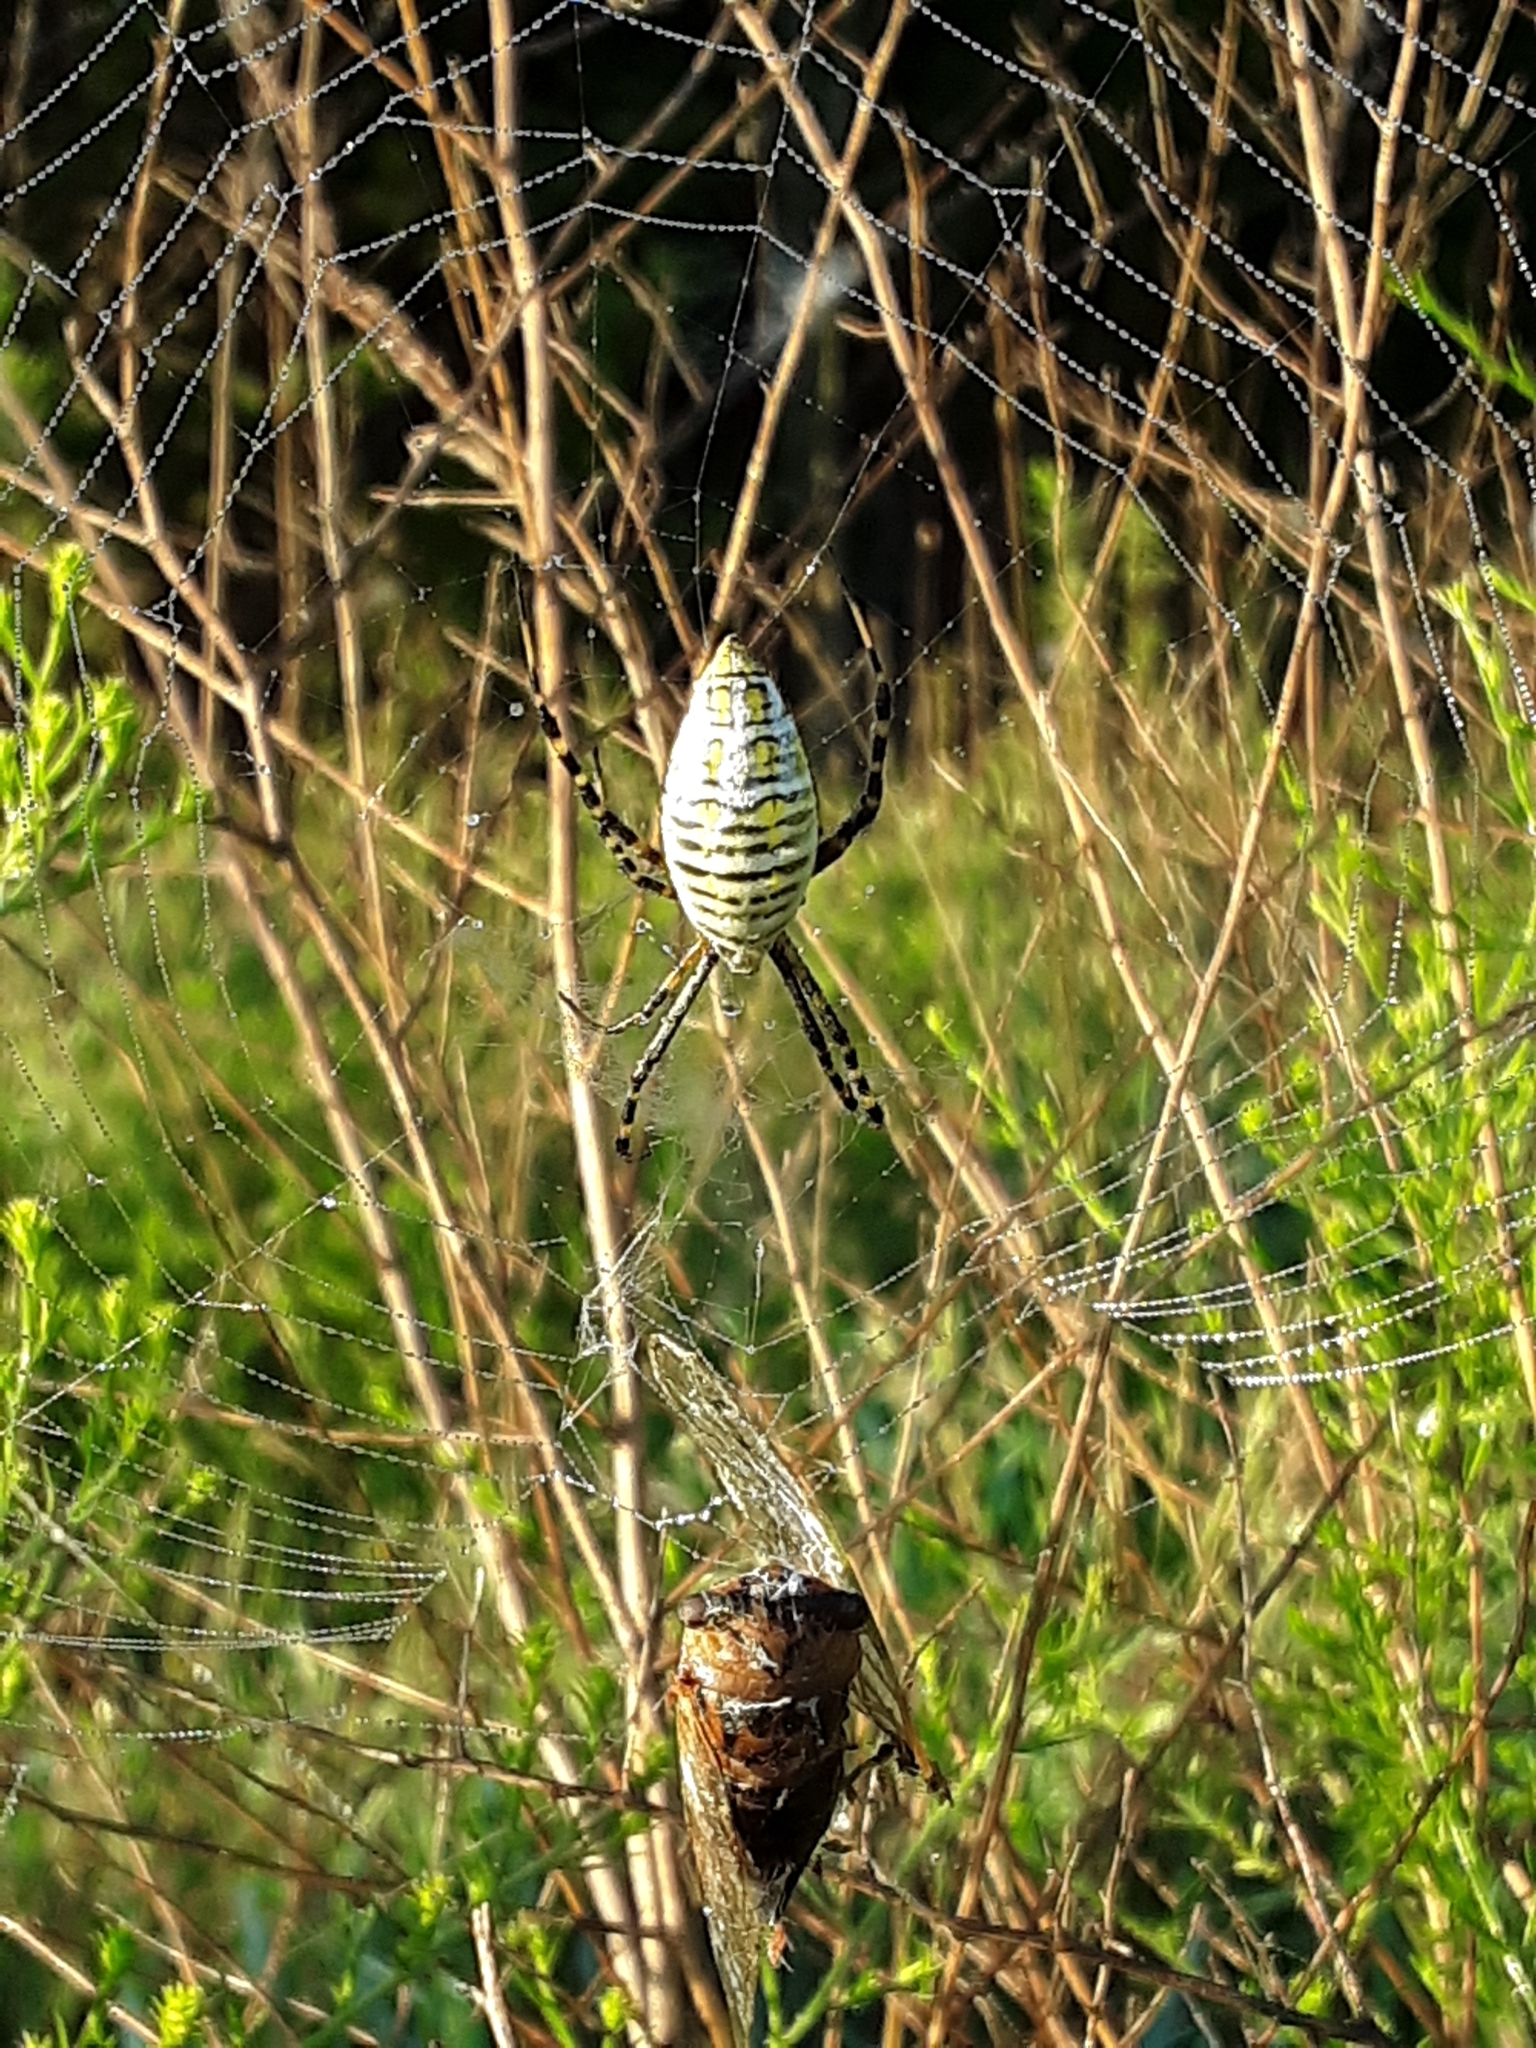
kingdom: Animalia
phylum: Arthropoda
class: Arachnida
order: Araneae
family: Araneidae
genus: Argiope
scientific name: Argiope trifasciata
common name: Banded garden spider
